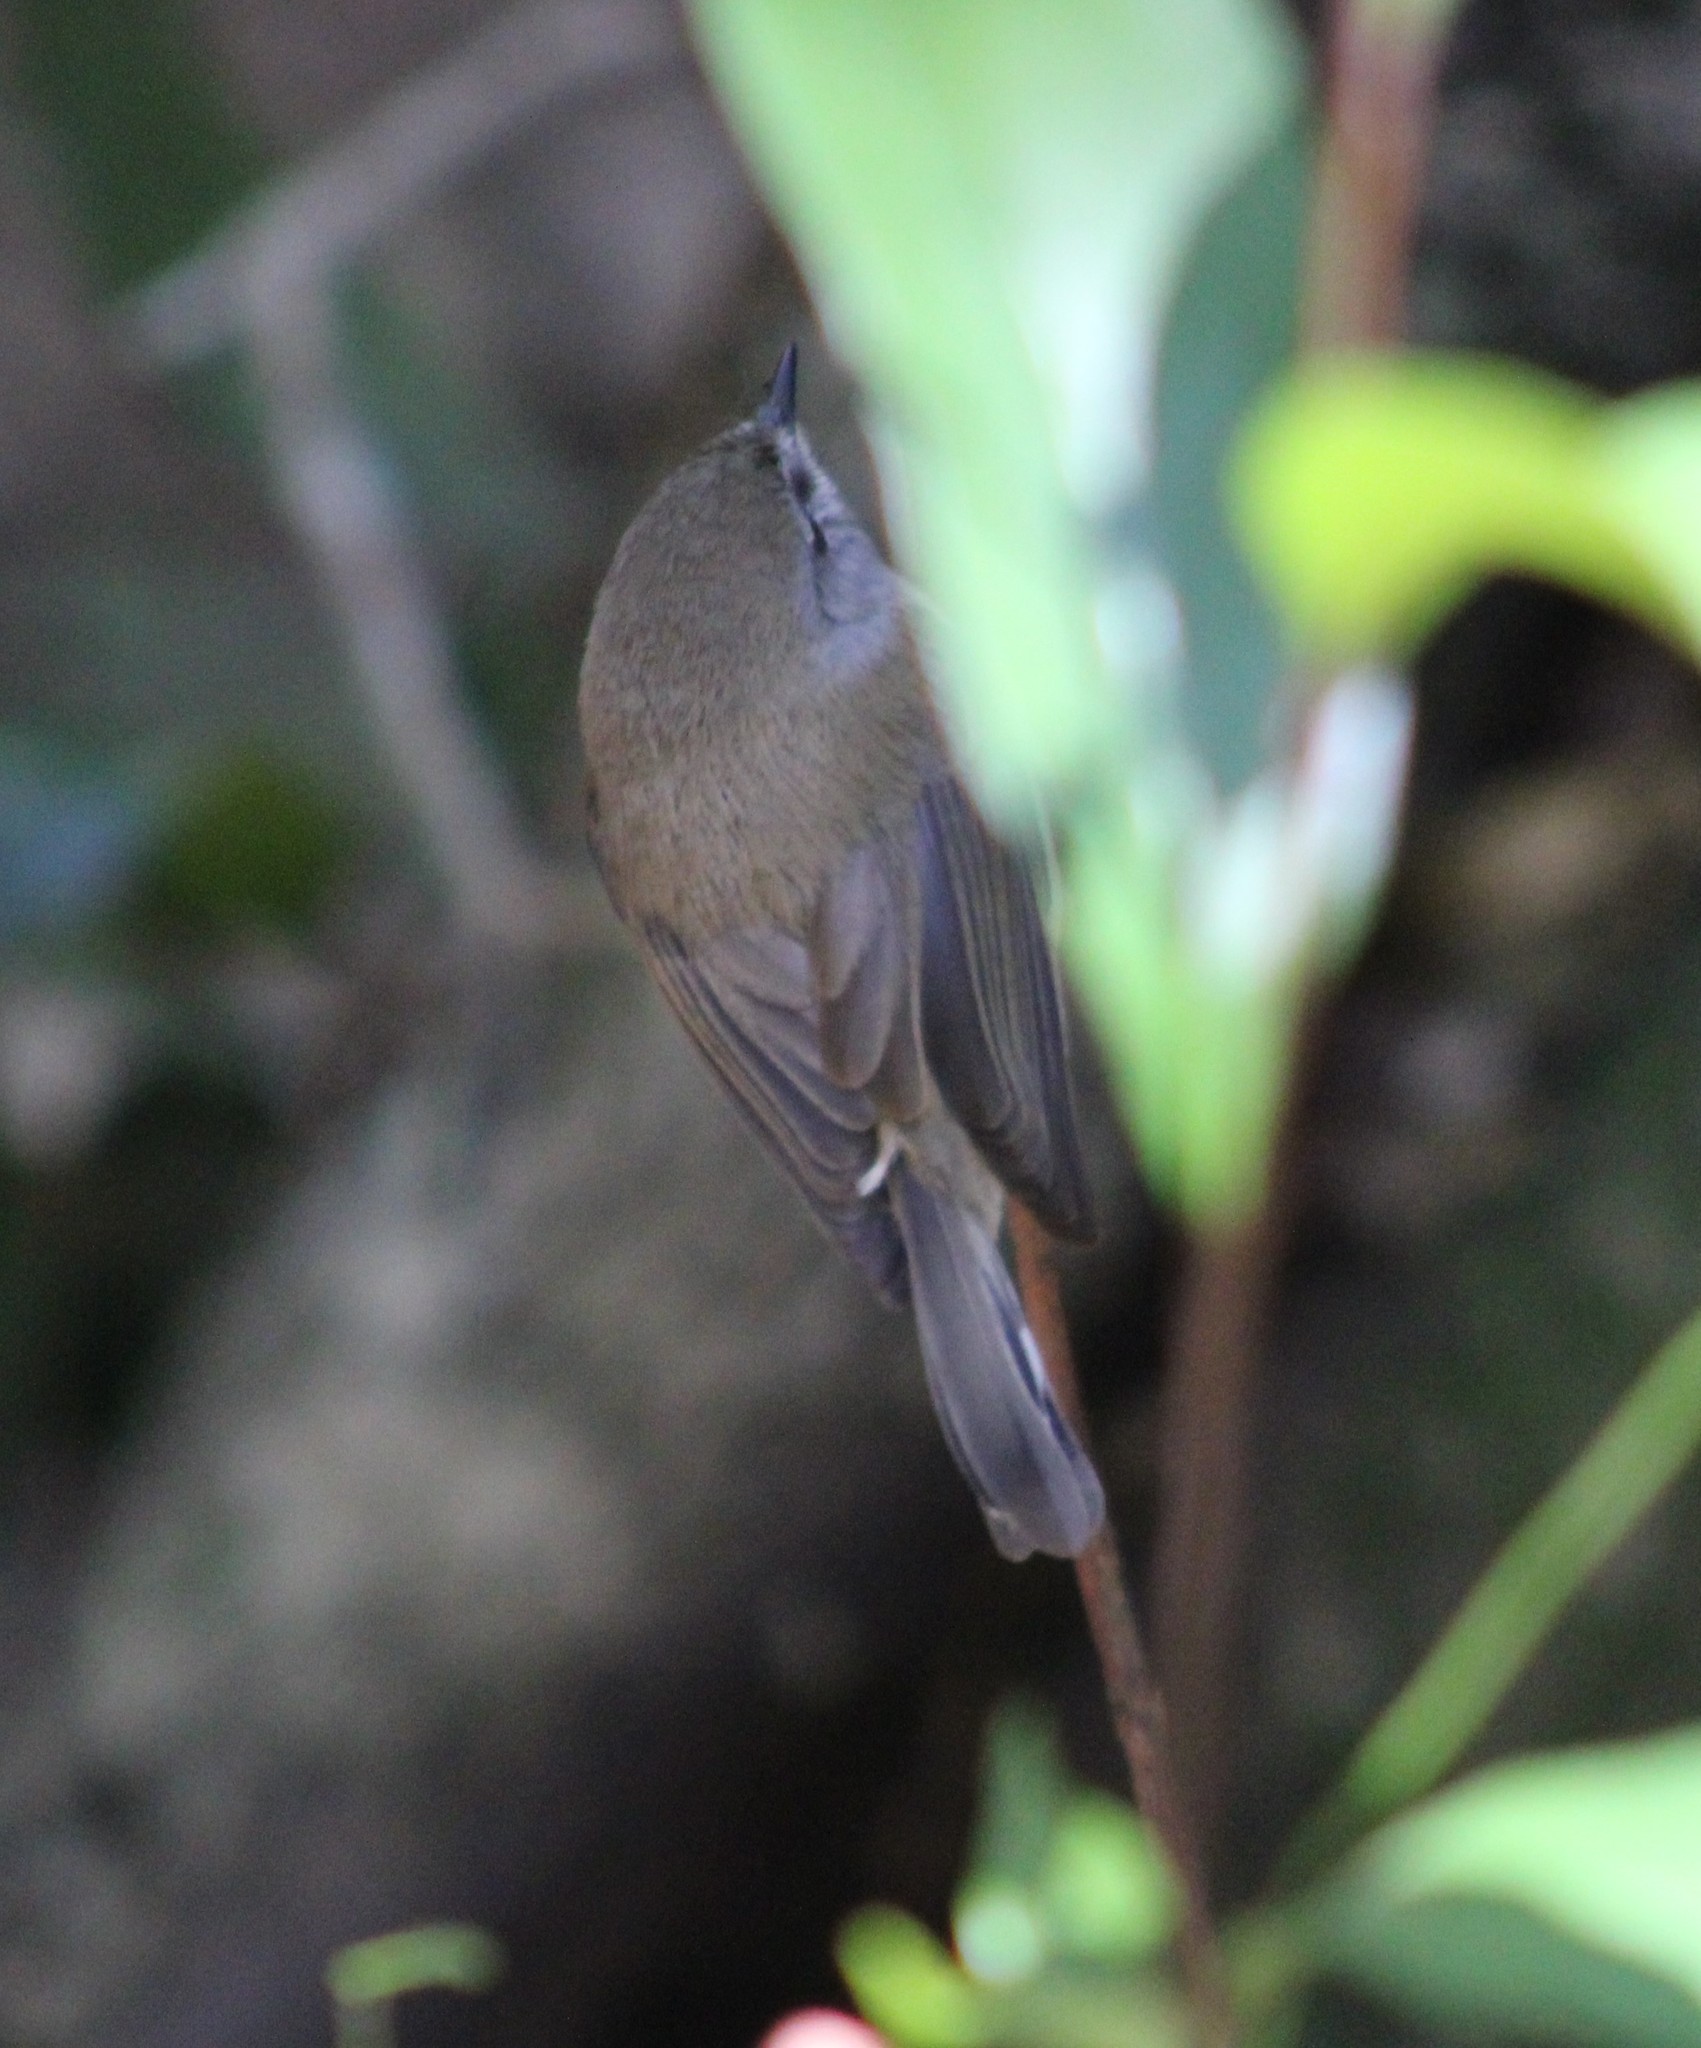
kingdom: Animalia
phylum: Chordata
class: Aves
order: Passeriformes
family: Acanthizidae
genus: Gerygone
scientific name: Gerygone mouki
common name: Brown gerygone
